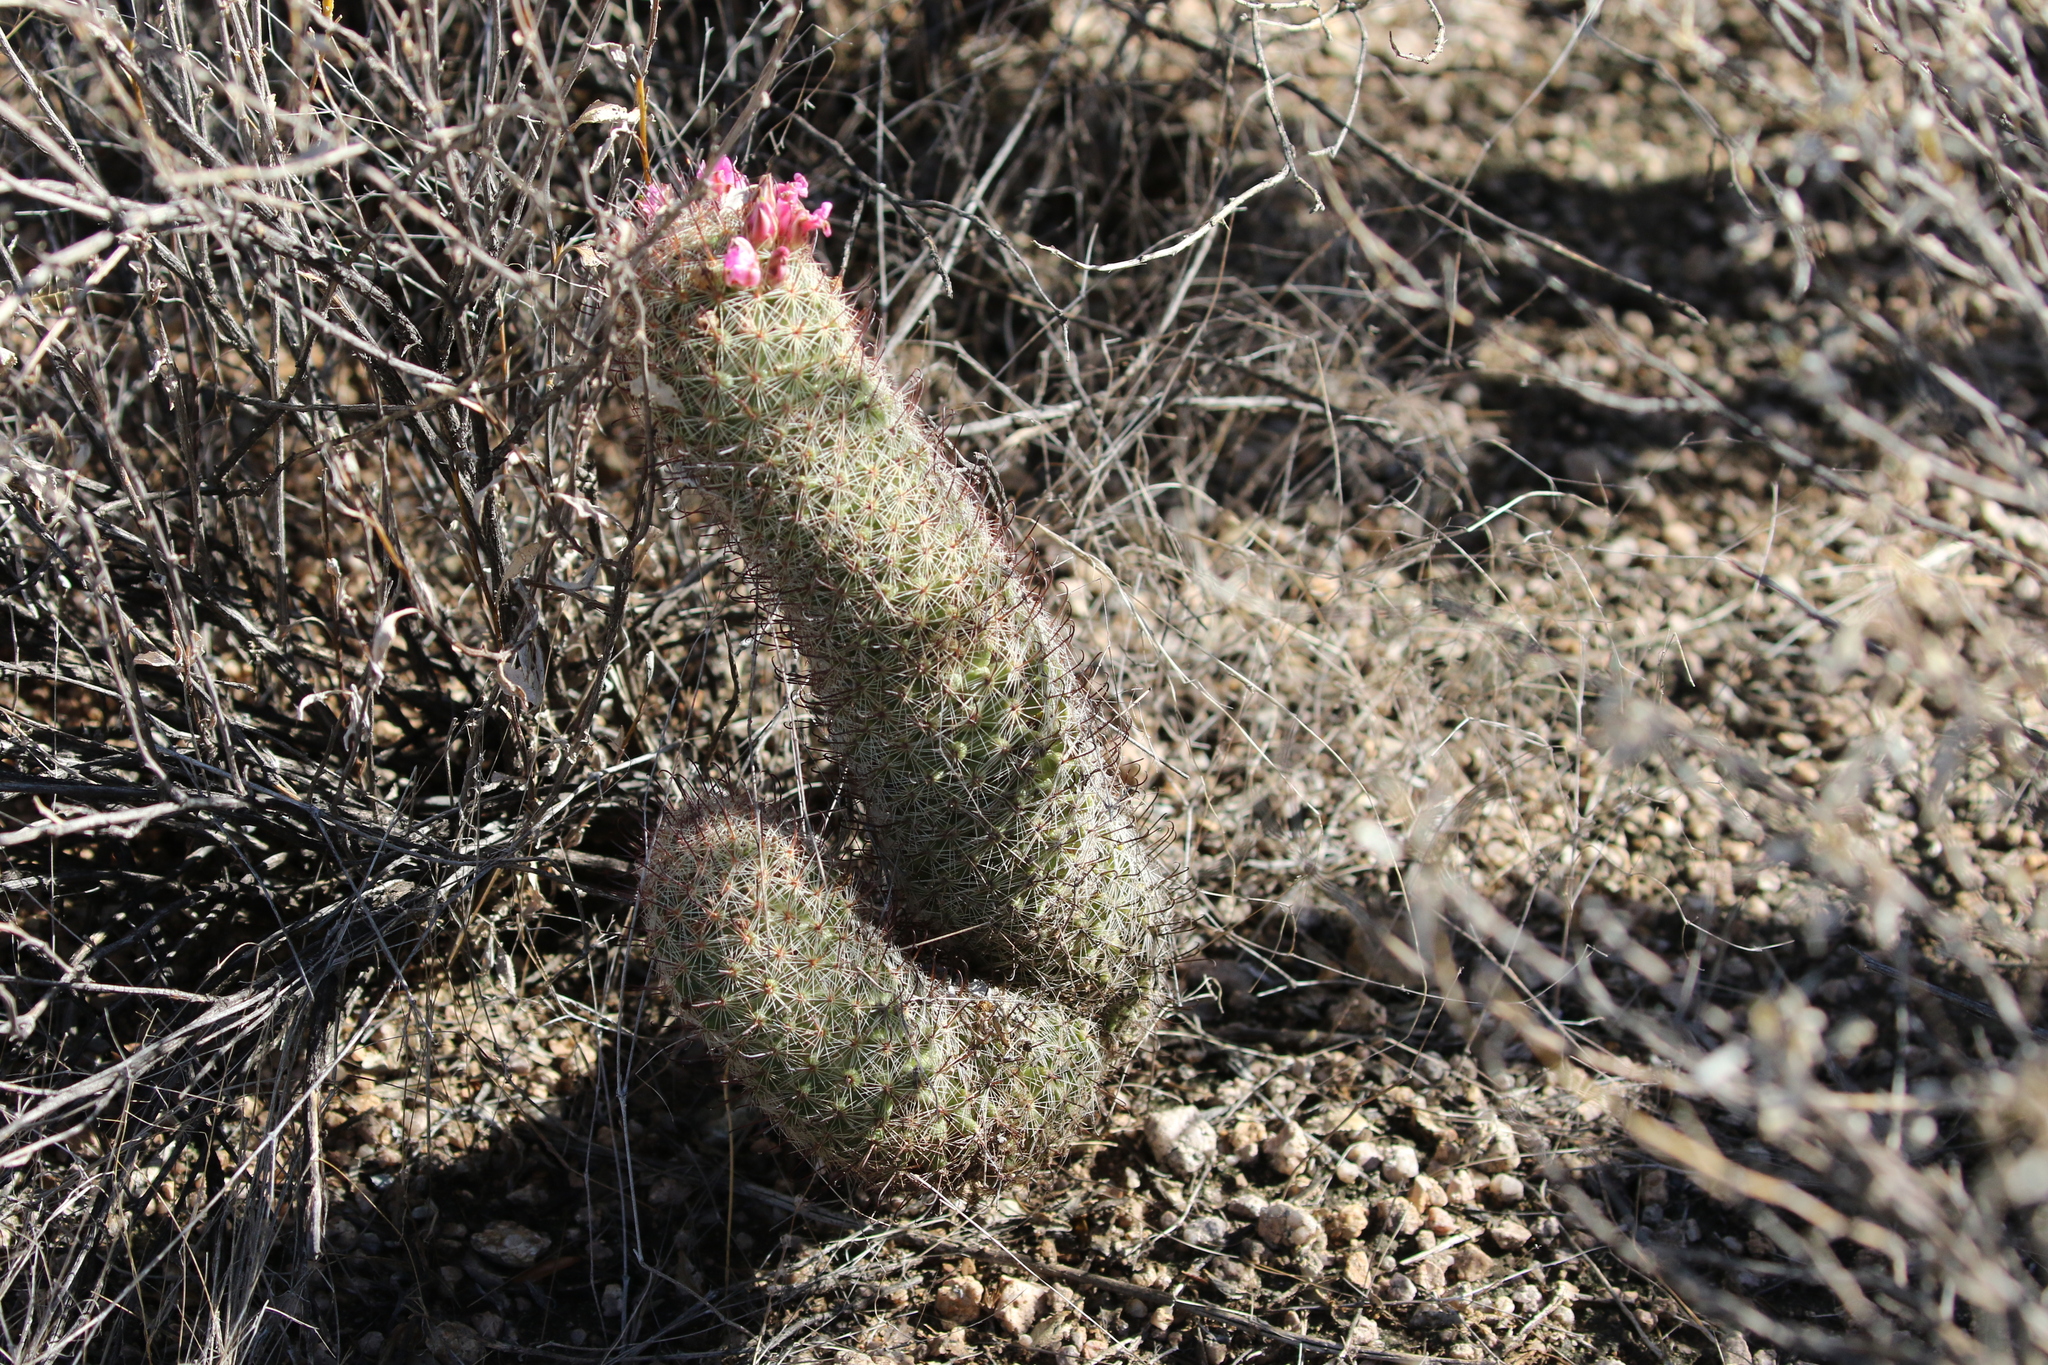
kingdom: Plantae
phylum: Tracheophyta
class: Magnoliopsida
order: Caryophyllales
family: Cactaceae
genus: Cochemiea
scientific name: Cochemiea grahamii
